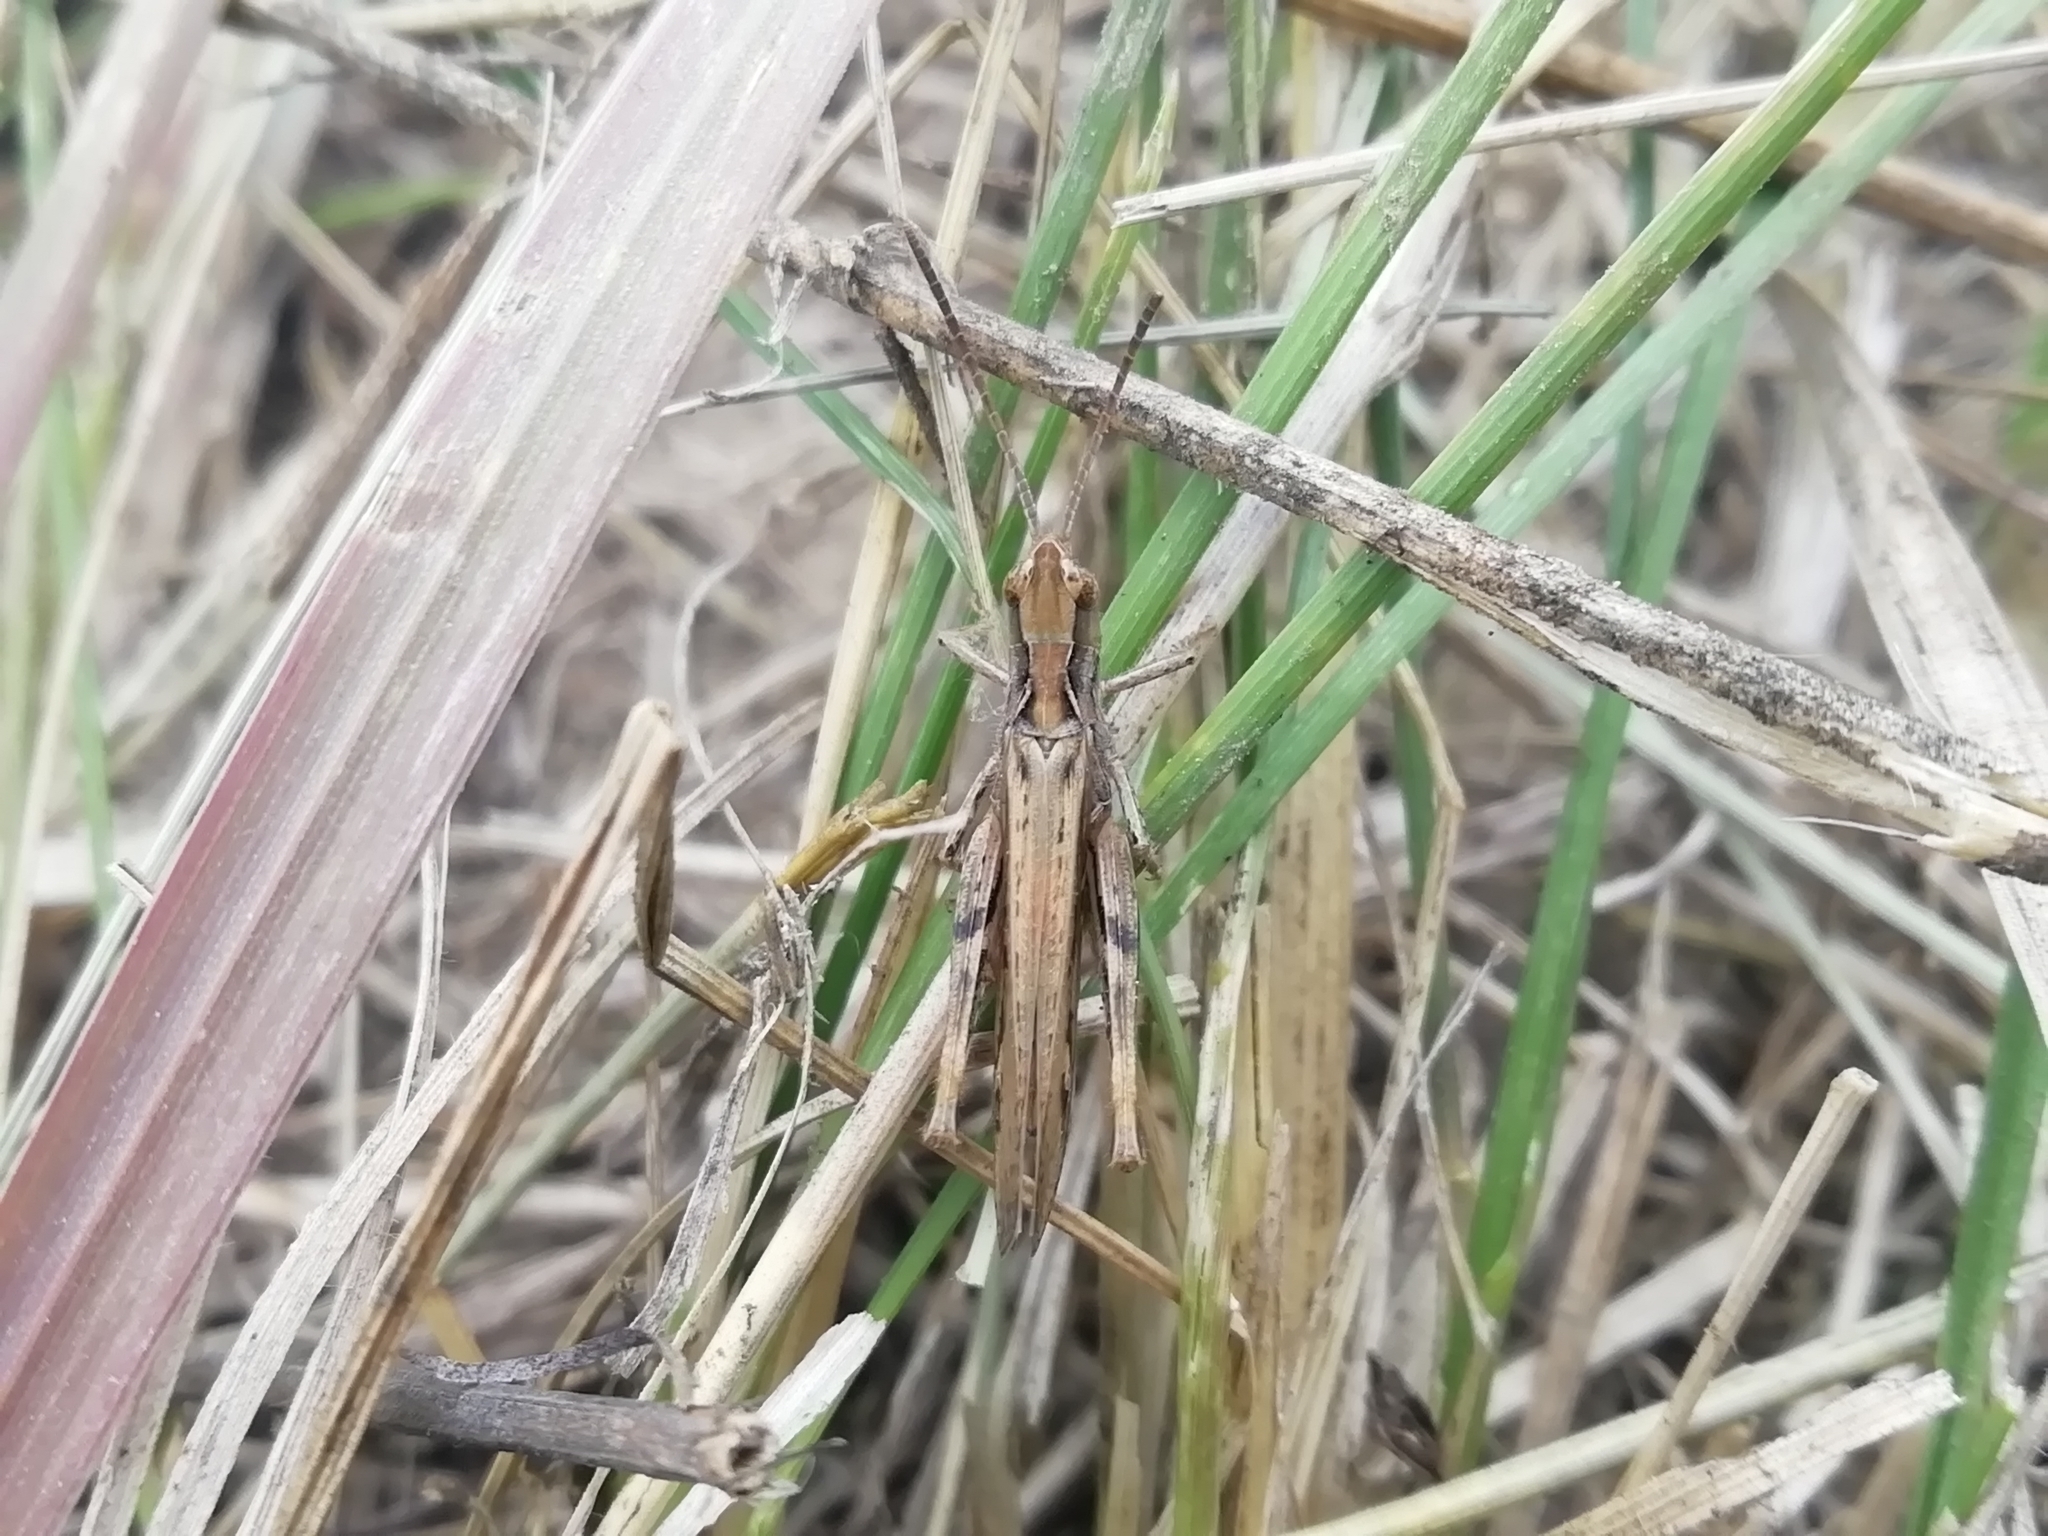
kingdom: Animalia
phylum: Arthropoda
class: Insecta
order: Orthoptera
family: Acrididae
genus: Chorthippus
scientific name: Chorthippus biguttulus
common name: Bow-winged grasshopper
